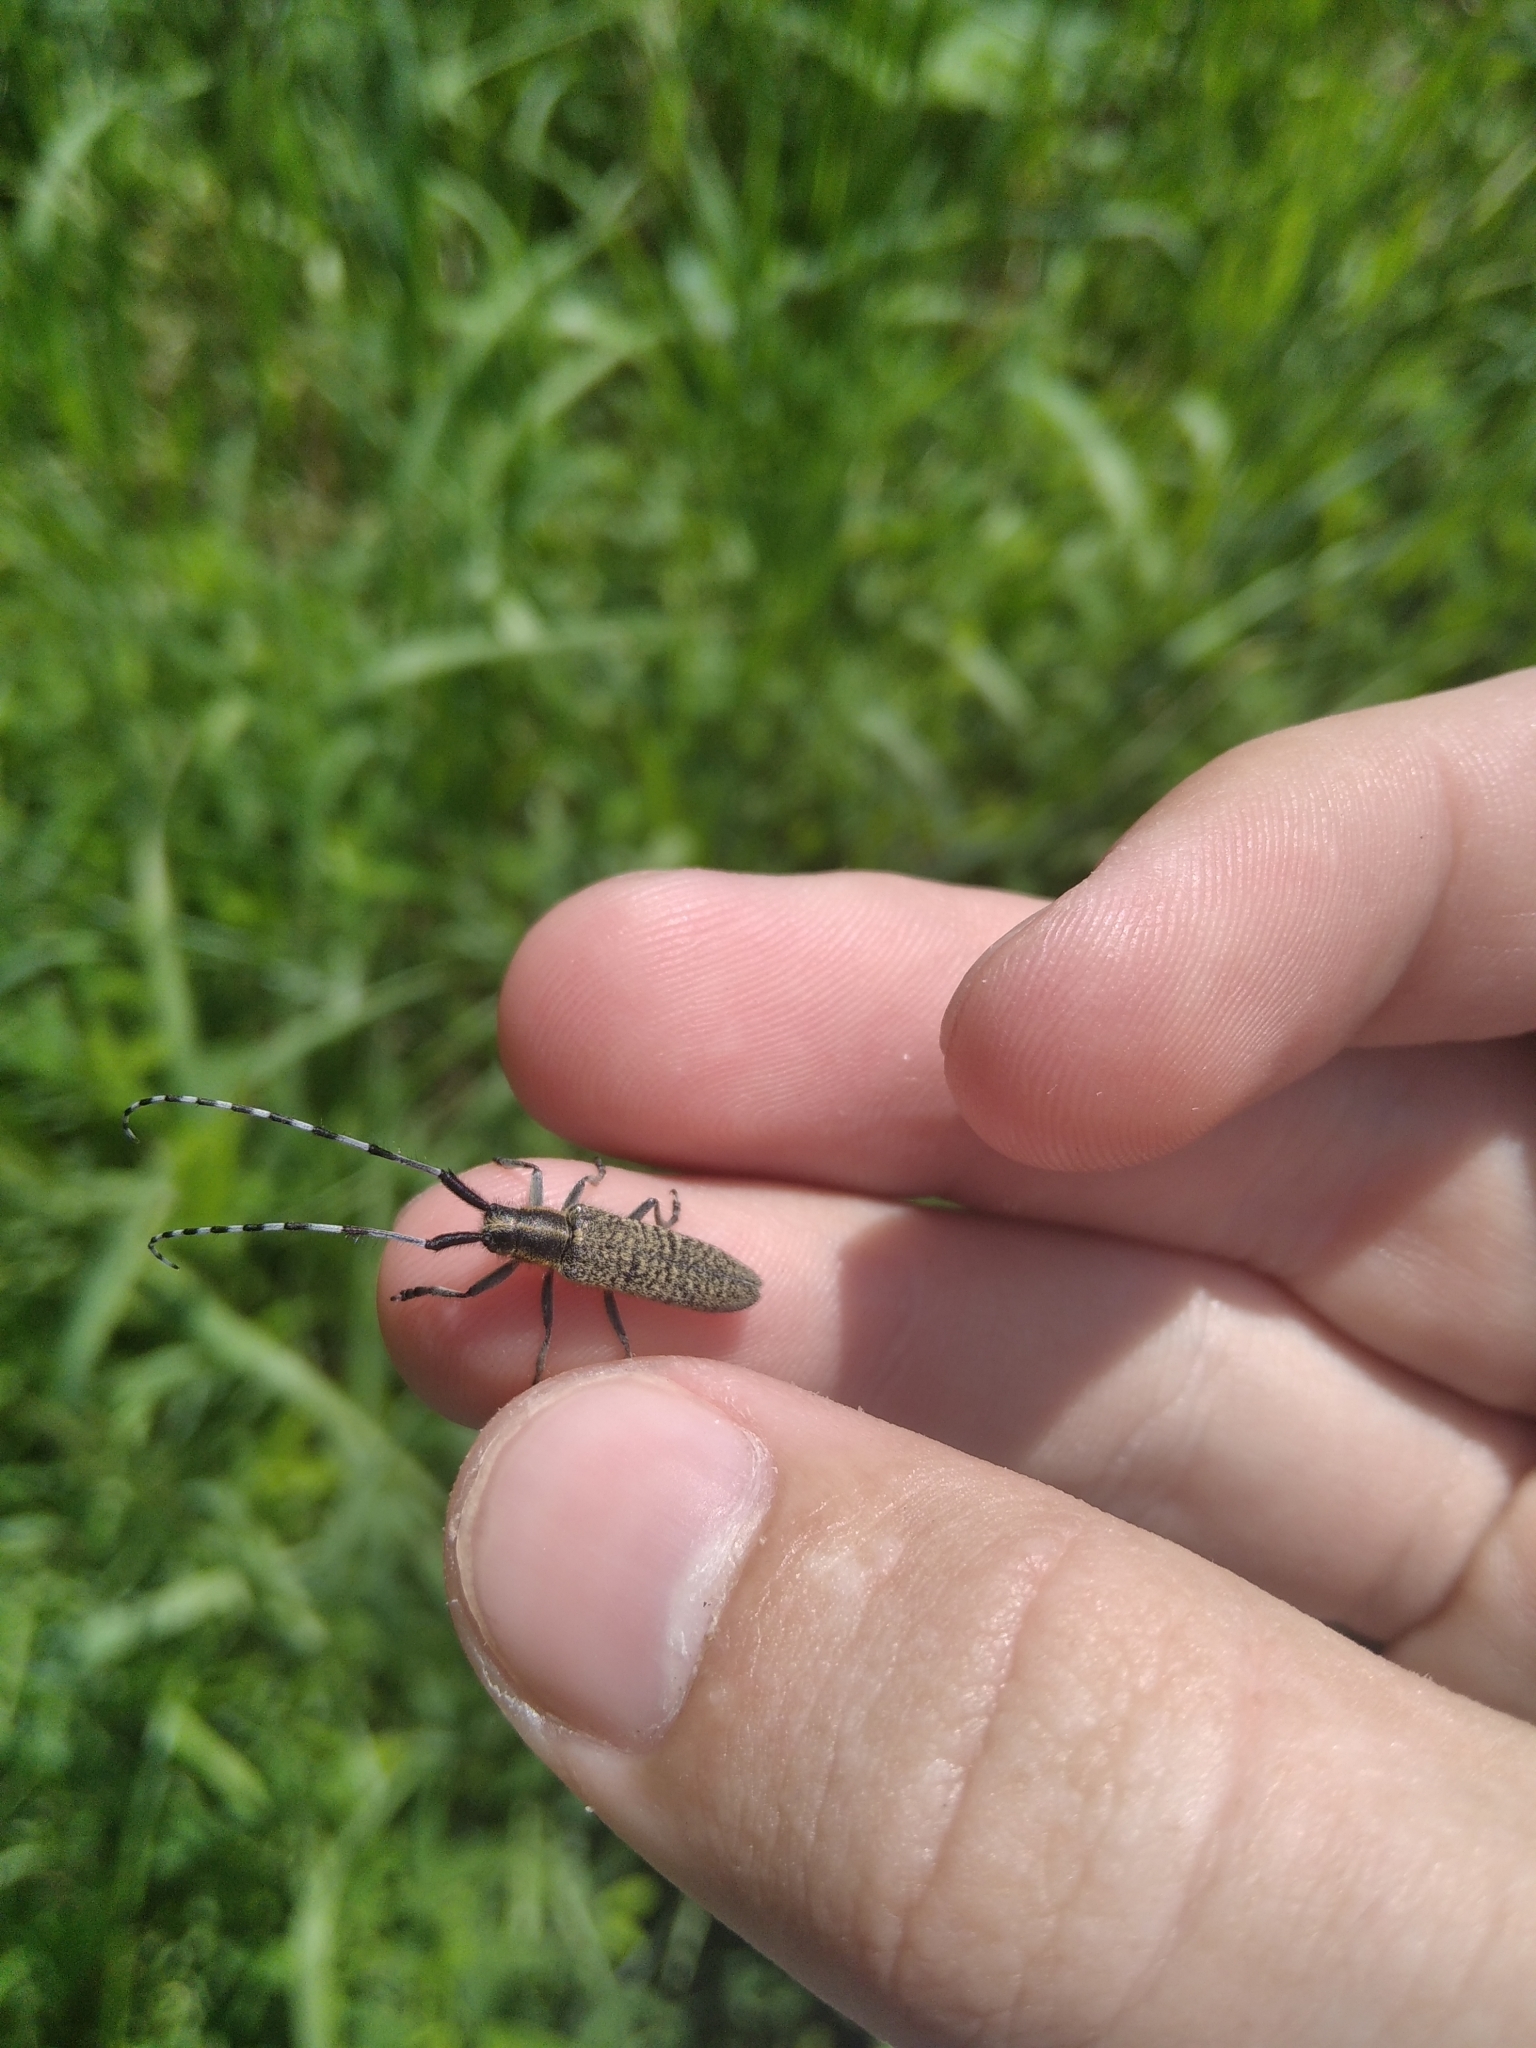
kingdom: Animalia
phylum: Arthropoda
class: Insecta
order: Coleoptera
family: Cerambycidae
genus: Agapanthia
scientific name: Agapanthia villosoviridescens
